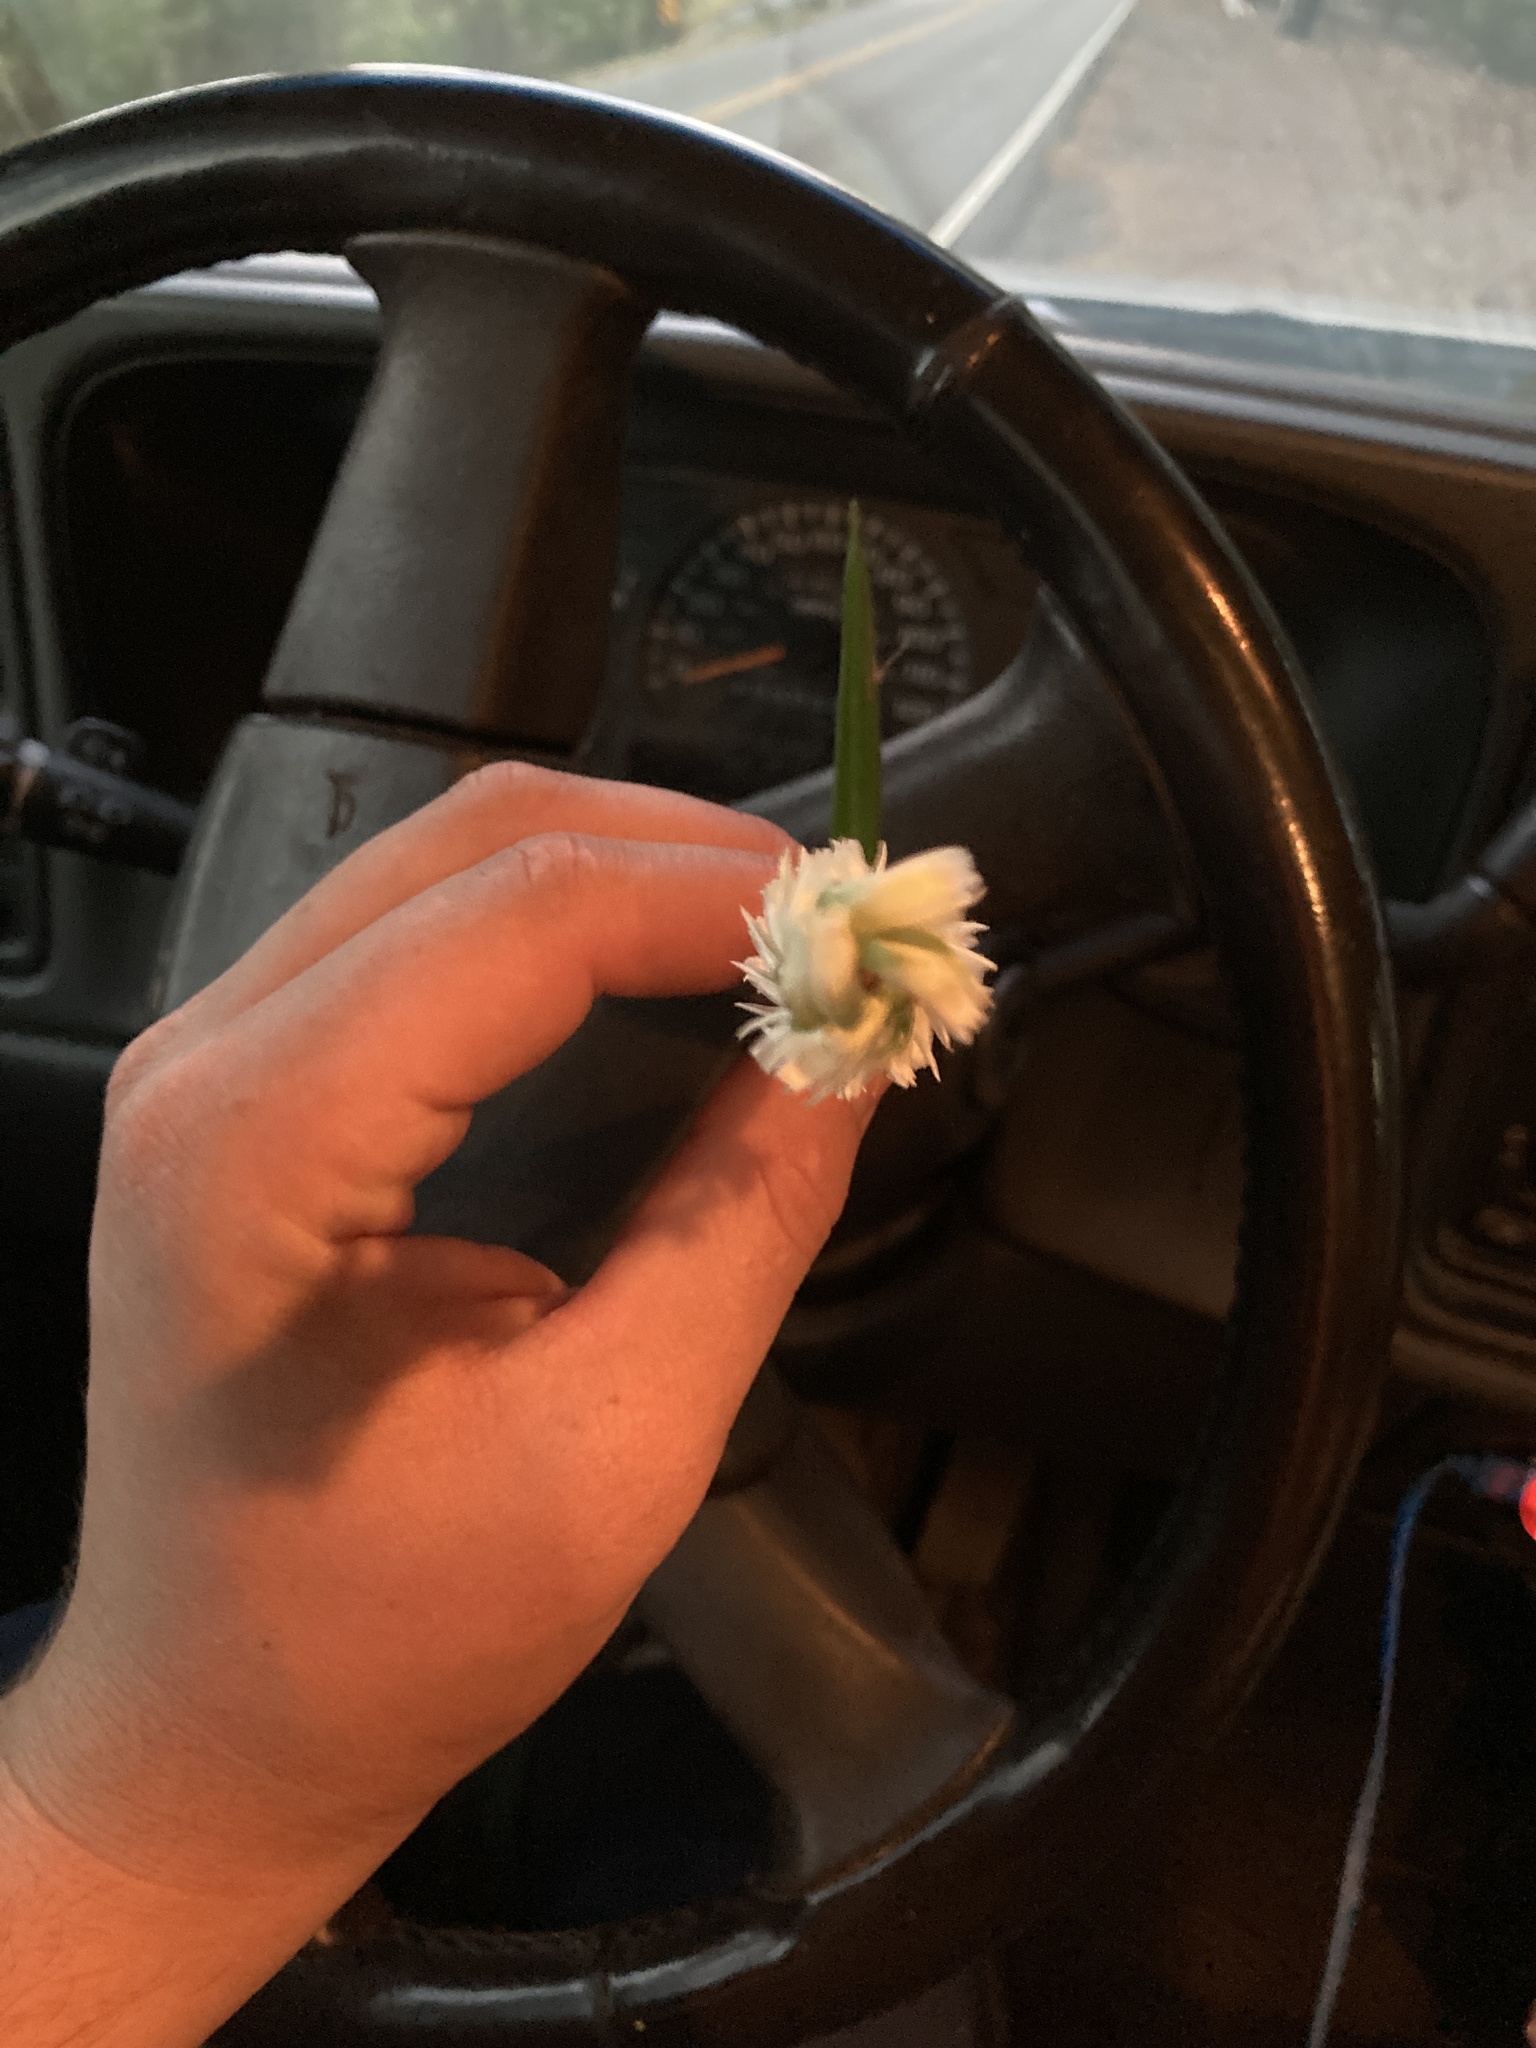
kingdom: Plantae
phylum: Tracheophyta
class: Liliopsida
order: Asparagales
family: Orchidaceae
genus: Spiranthes
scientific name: Spiranthes odorata
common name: Marsh ladies'-tresses
